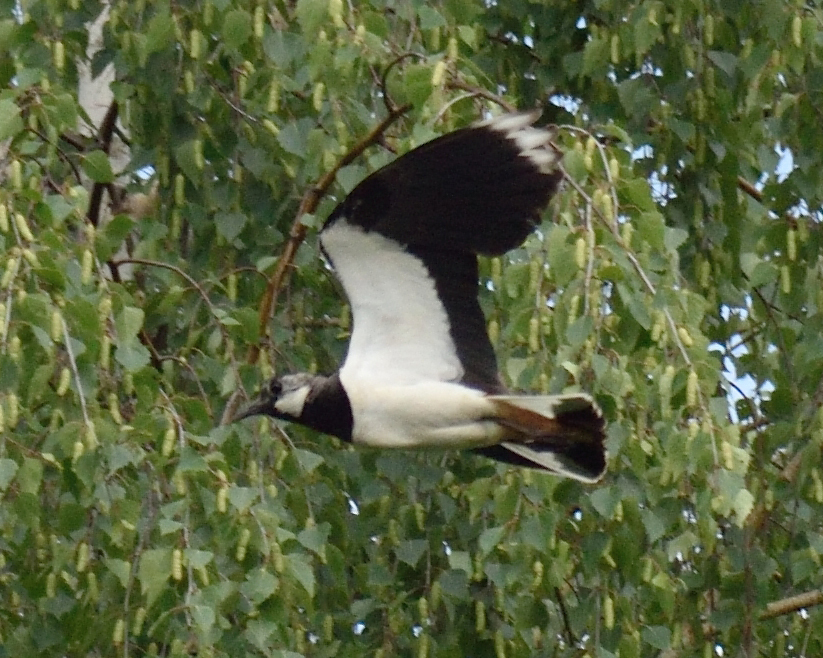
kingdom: Animalia
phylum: Chordata
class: Aves
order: Charadriiformes
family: Charadriidae
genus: Vanellus
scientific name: Vanellus vanellus
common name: Northern lapwing
